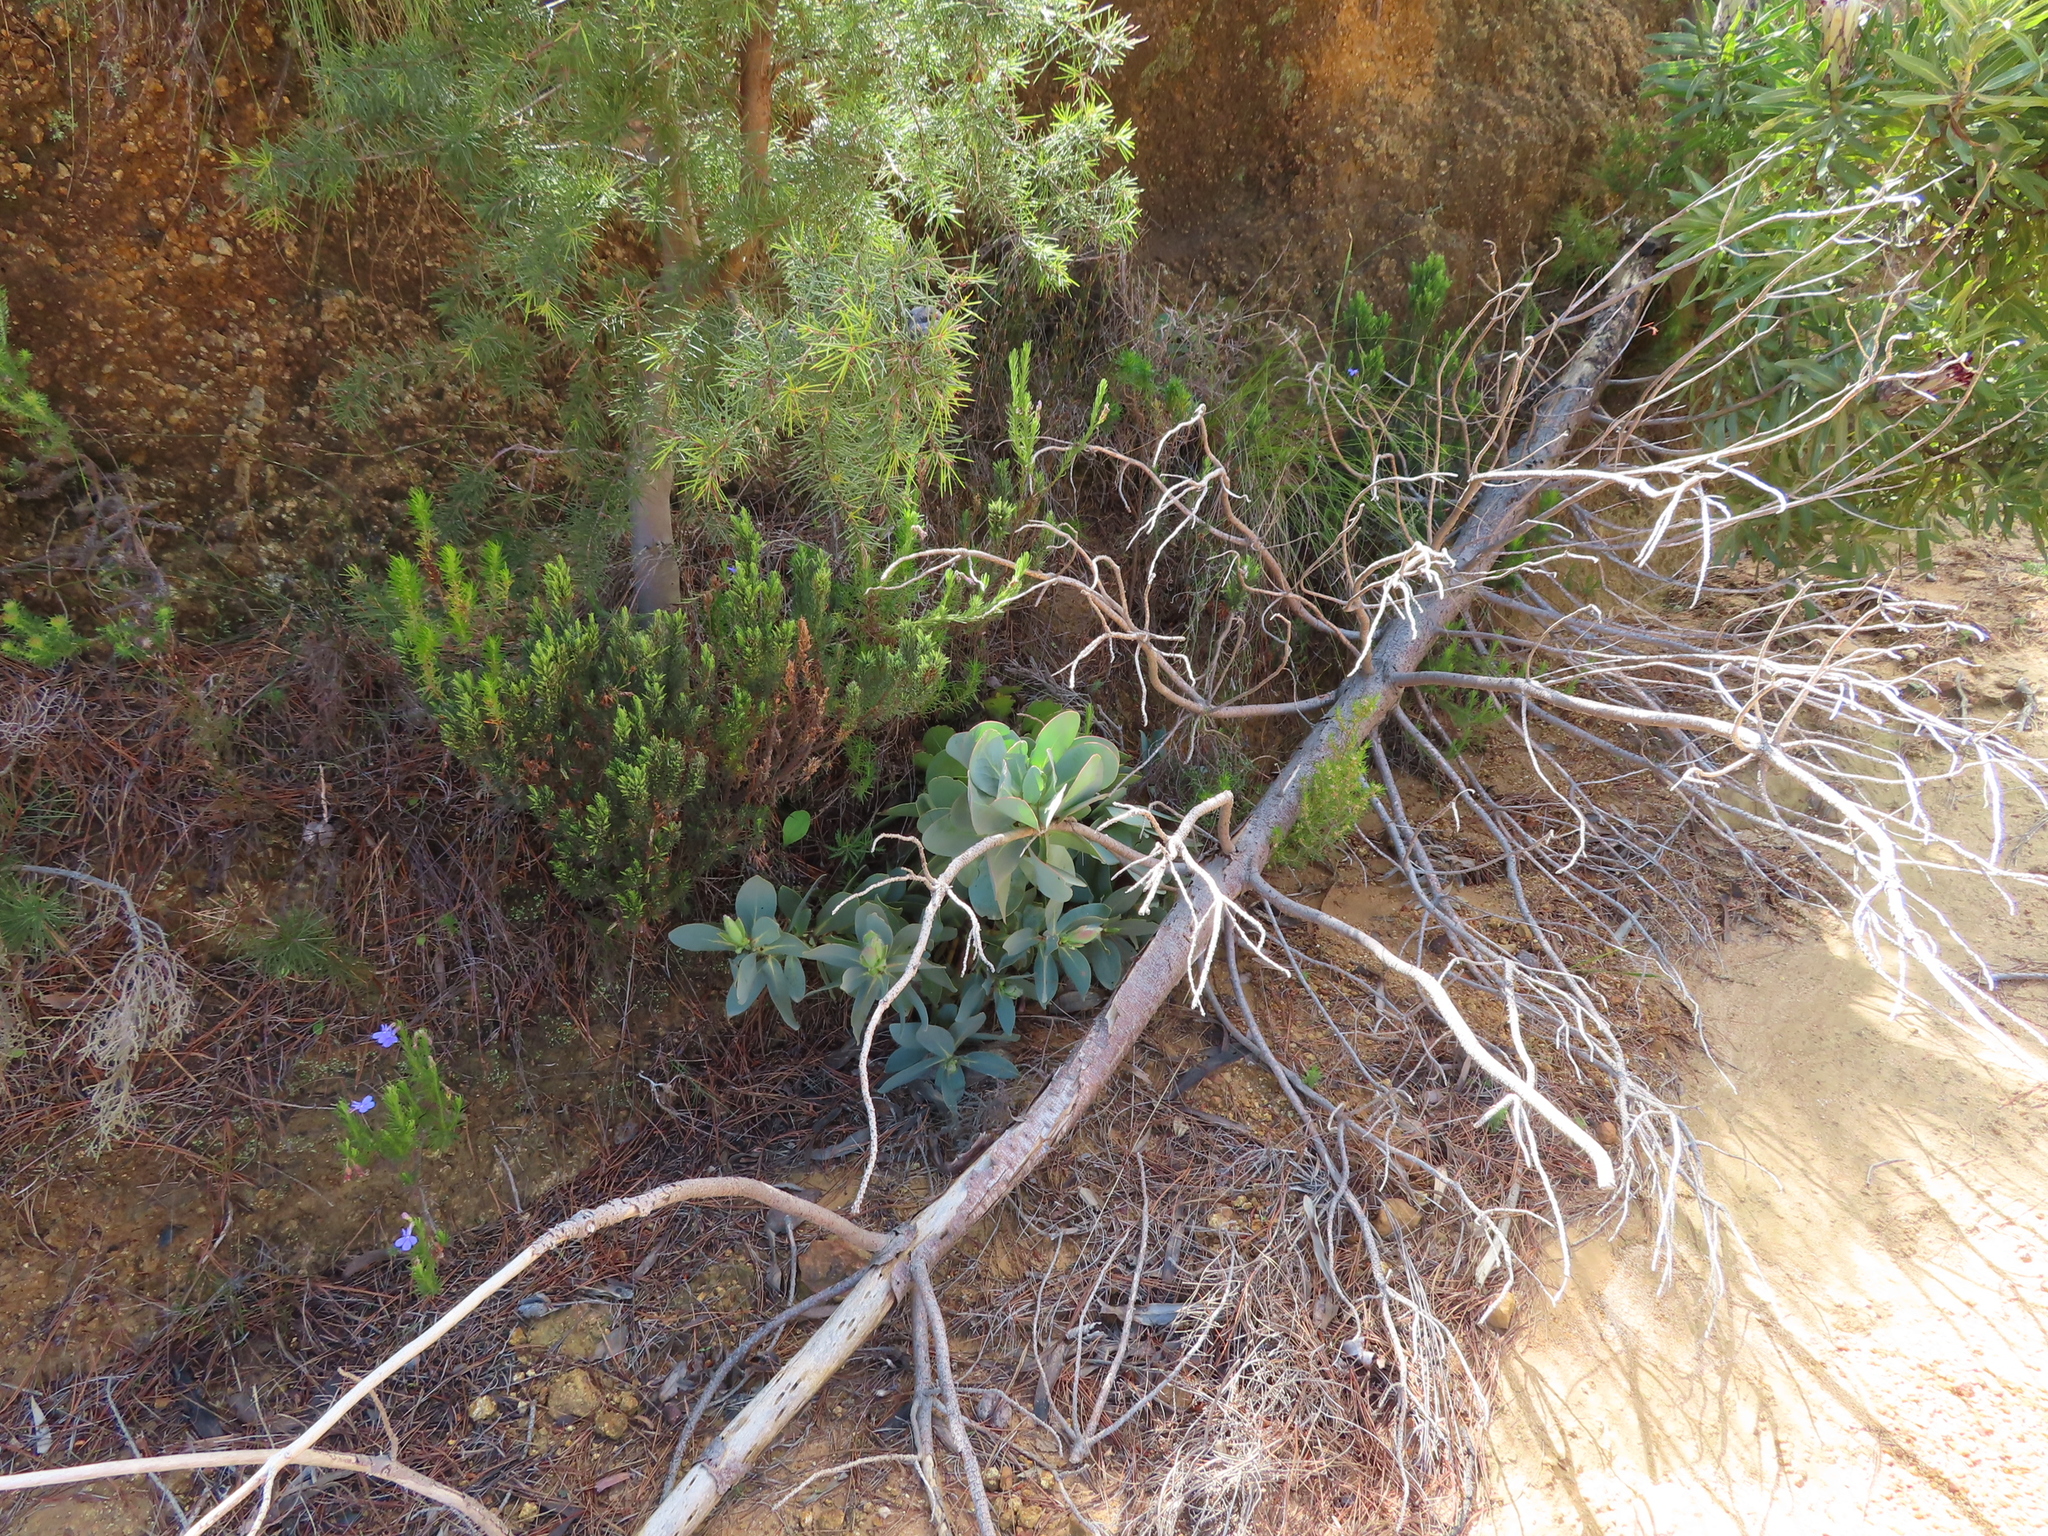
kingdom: Plantae
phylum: Tracheophyta
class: Magnoliopsida
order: Proteales
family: Proteaceae
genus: Protea
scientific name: Protea grandiceps
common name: Red sugarbush
